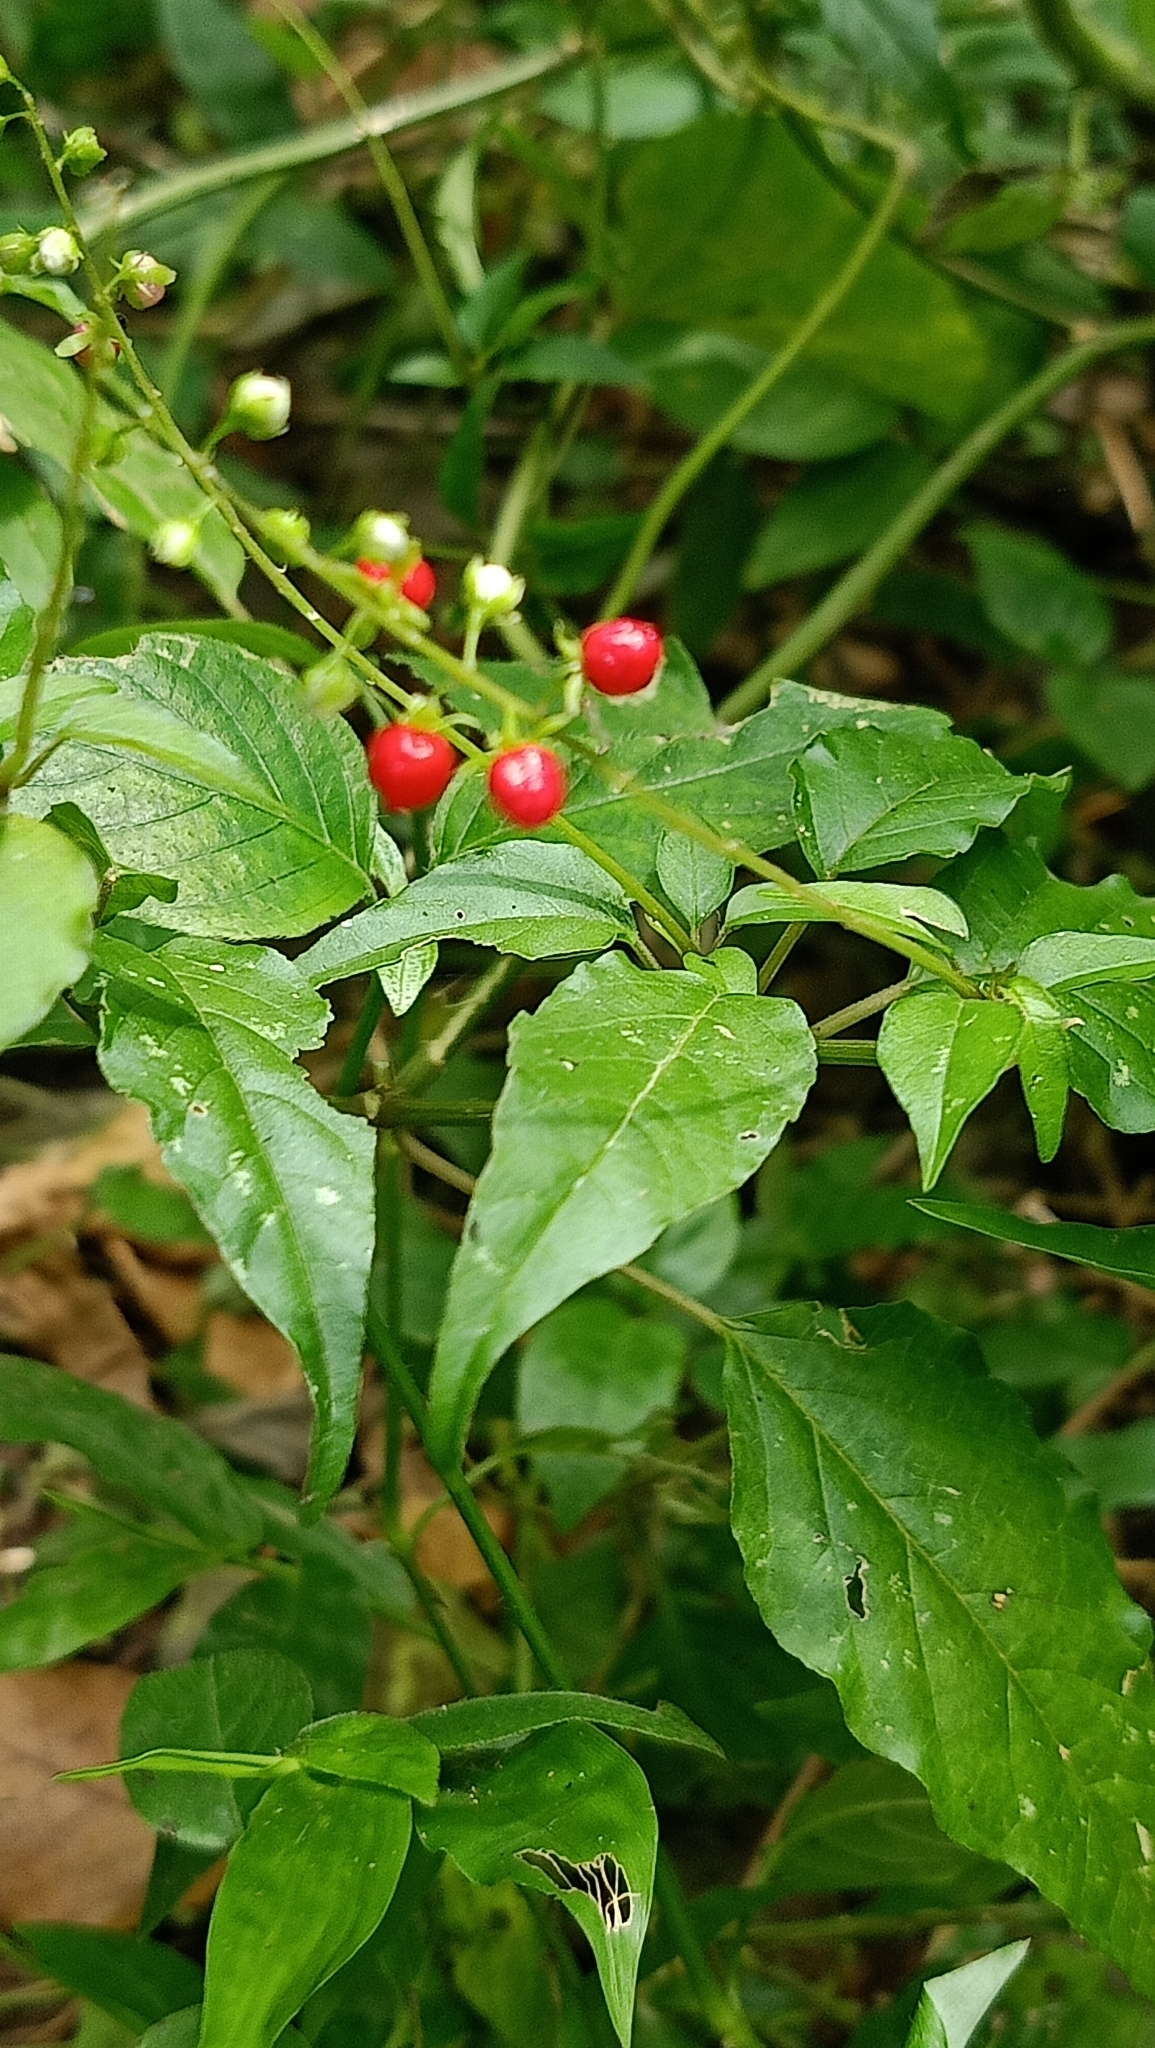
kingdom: Plantae
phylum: Tracheophyta
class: Magnoliopsida
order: Caryophyllales
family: Phytolaccaceae
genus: Rivina
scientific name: Rivina humilis
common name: Rougeplant
